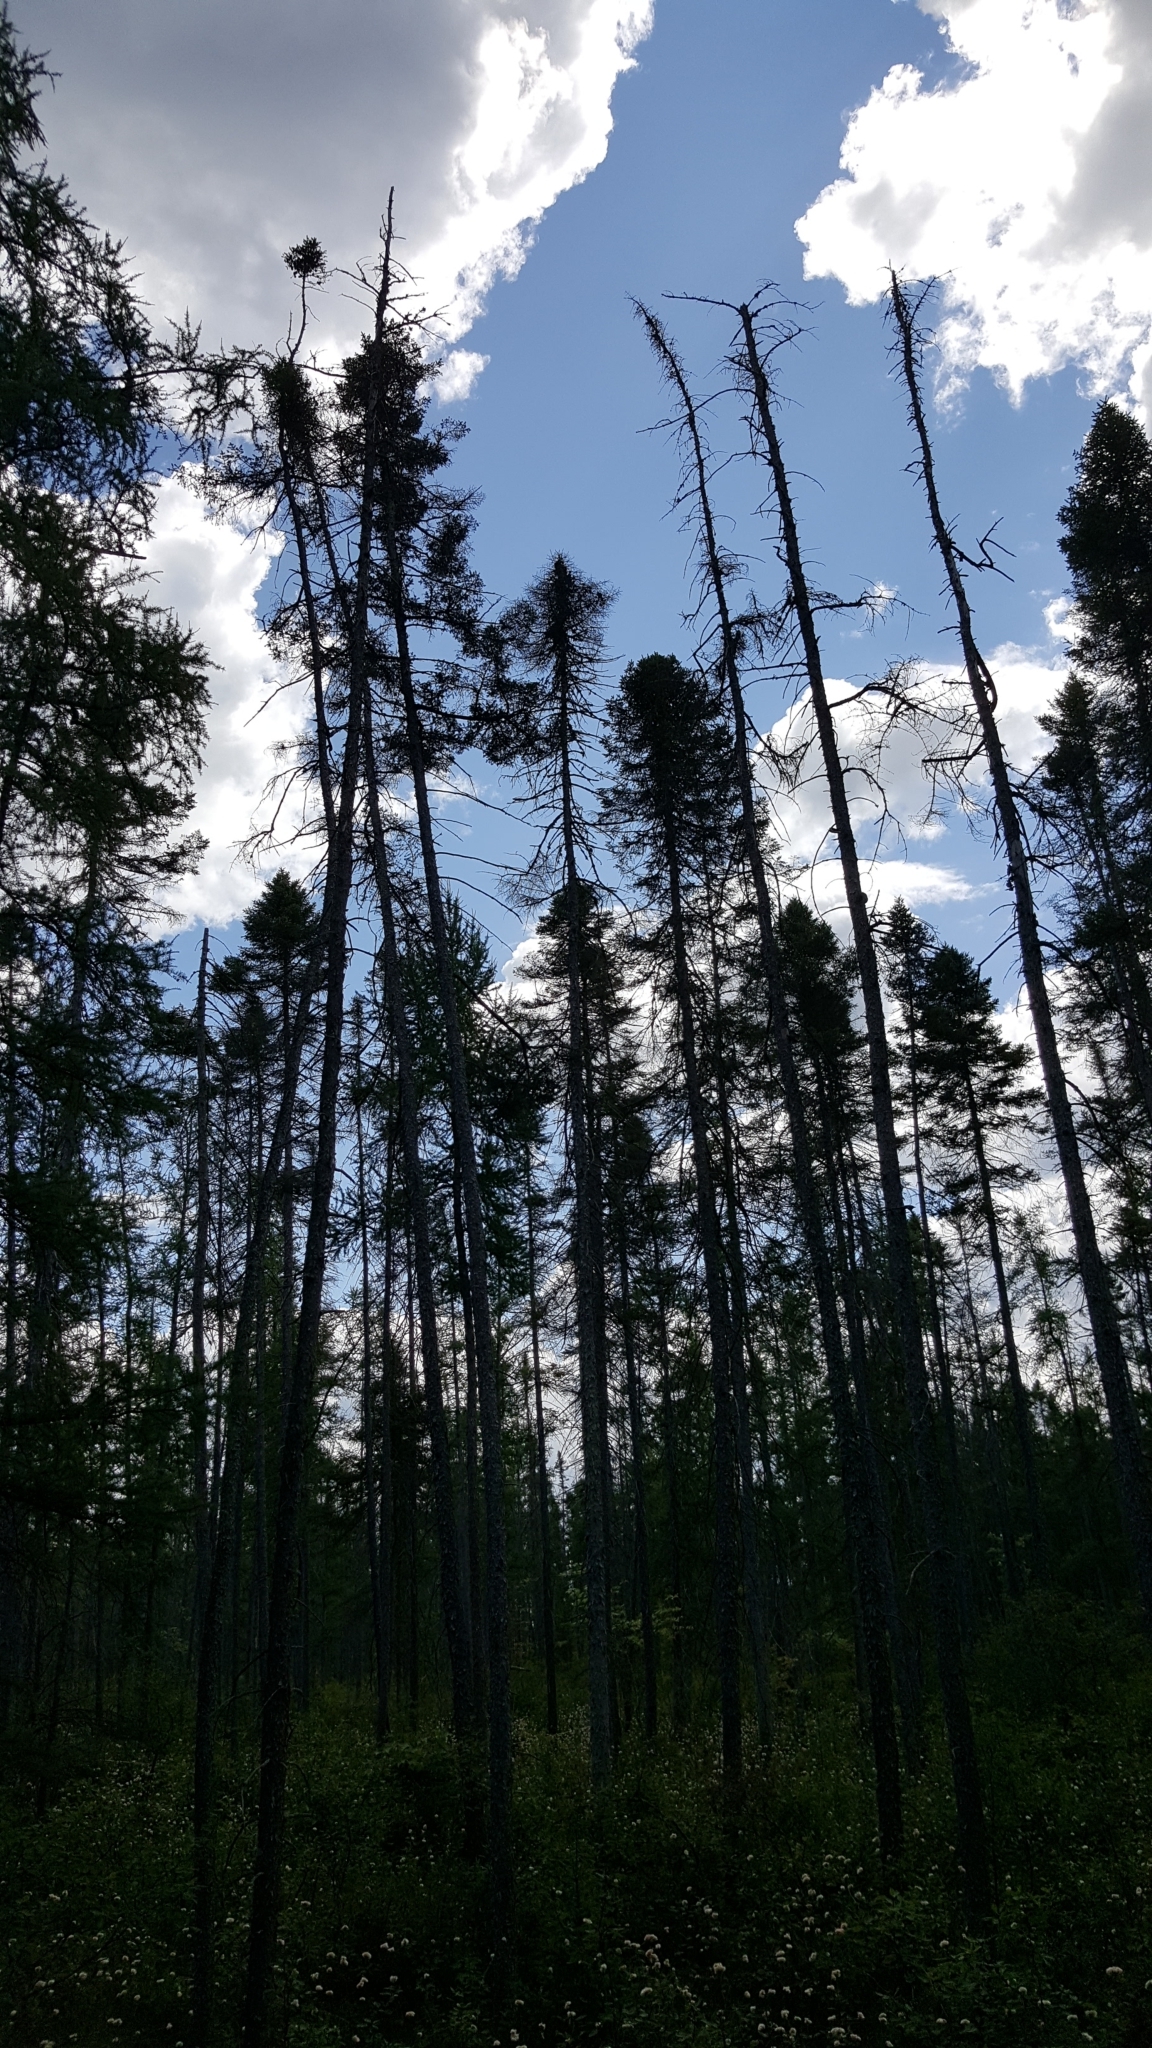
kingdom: Plantae
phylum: Tracheophyta
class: Pinopsida
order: Pinales
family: Pinaceae
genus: Picea
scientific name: Picea mariana
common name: Black spruce
